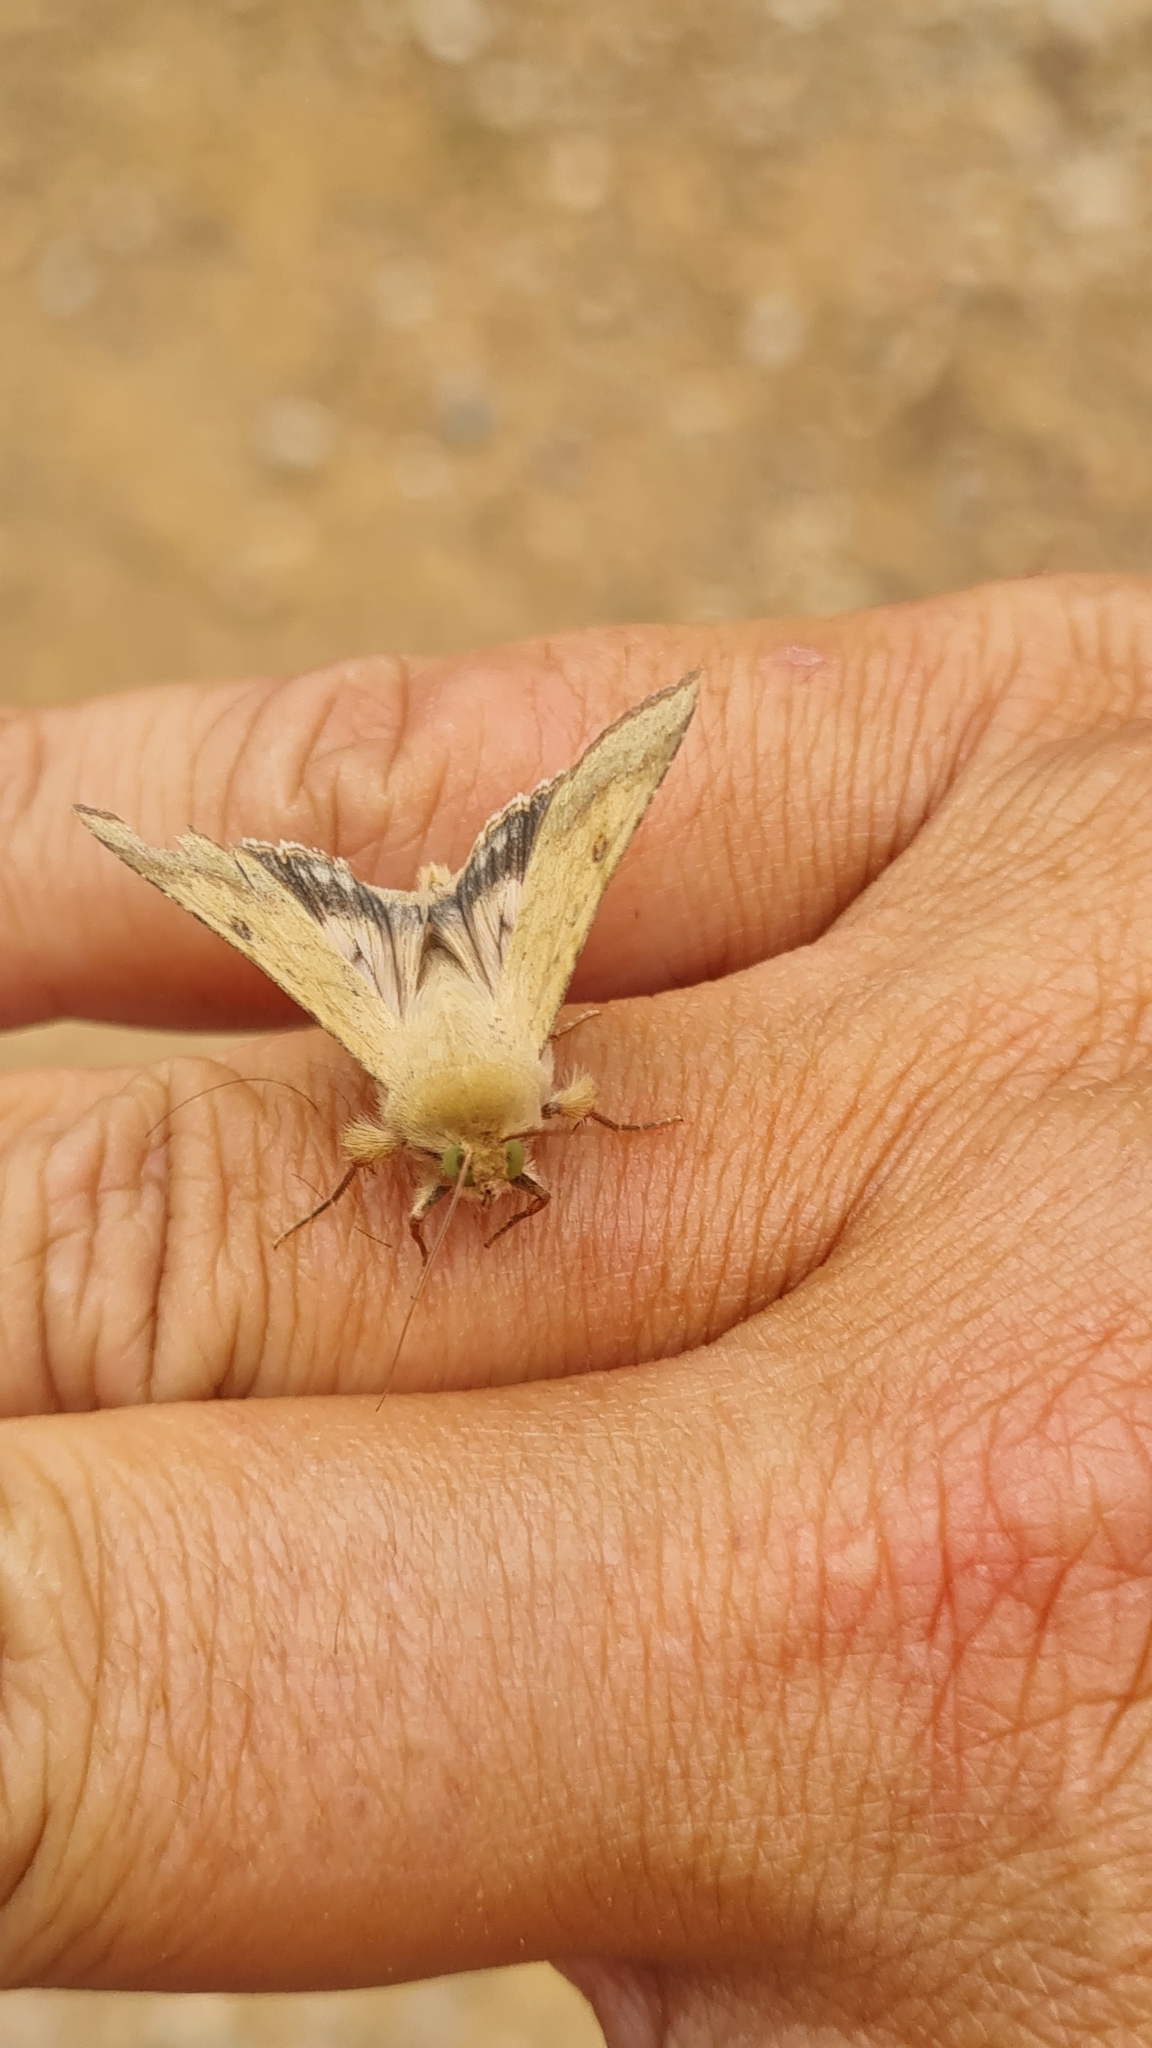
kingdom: Animalia
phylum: Arthropoda
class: Insecta
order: Lepidoptera
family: Noctuidae
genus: Helicoverpa
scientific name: Helicoverpa armigera
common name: Cotton bollworm
